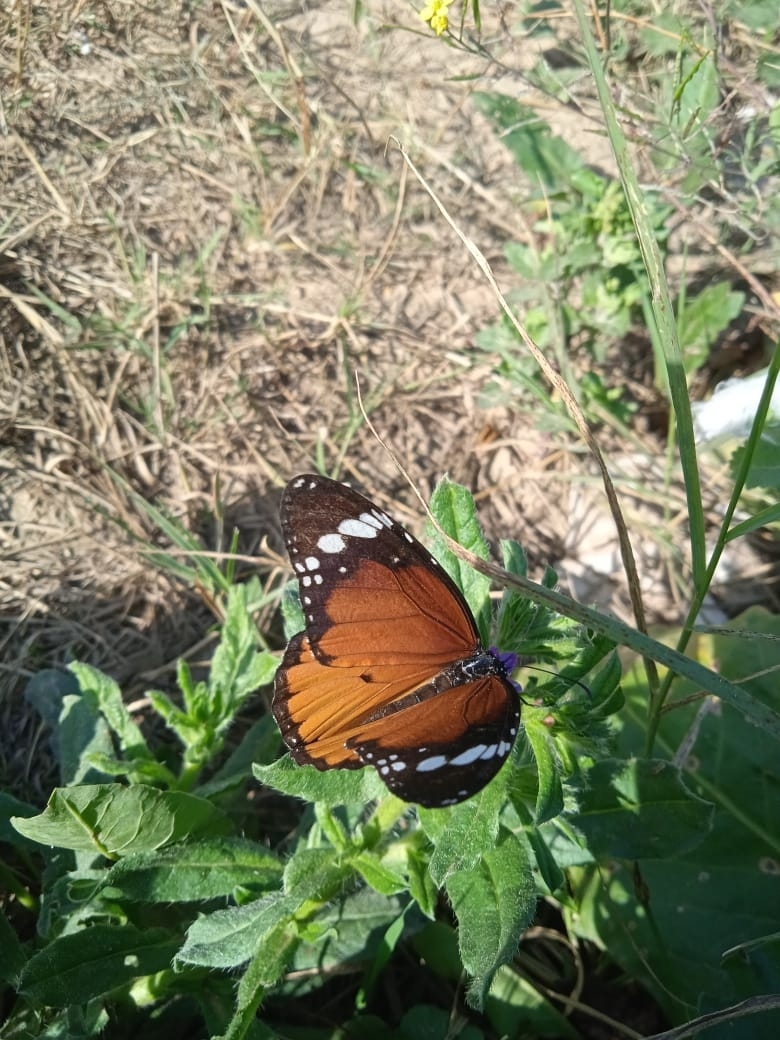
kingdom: Animalia
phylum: Arthropoda
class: Insecta
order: Lepidoptera
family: Nymphalidae
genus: Danaus
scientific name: Danaus chrysippus
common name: Plain tiger
